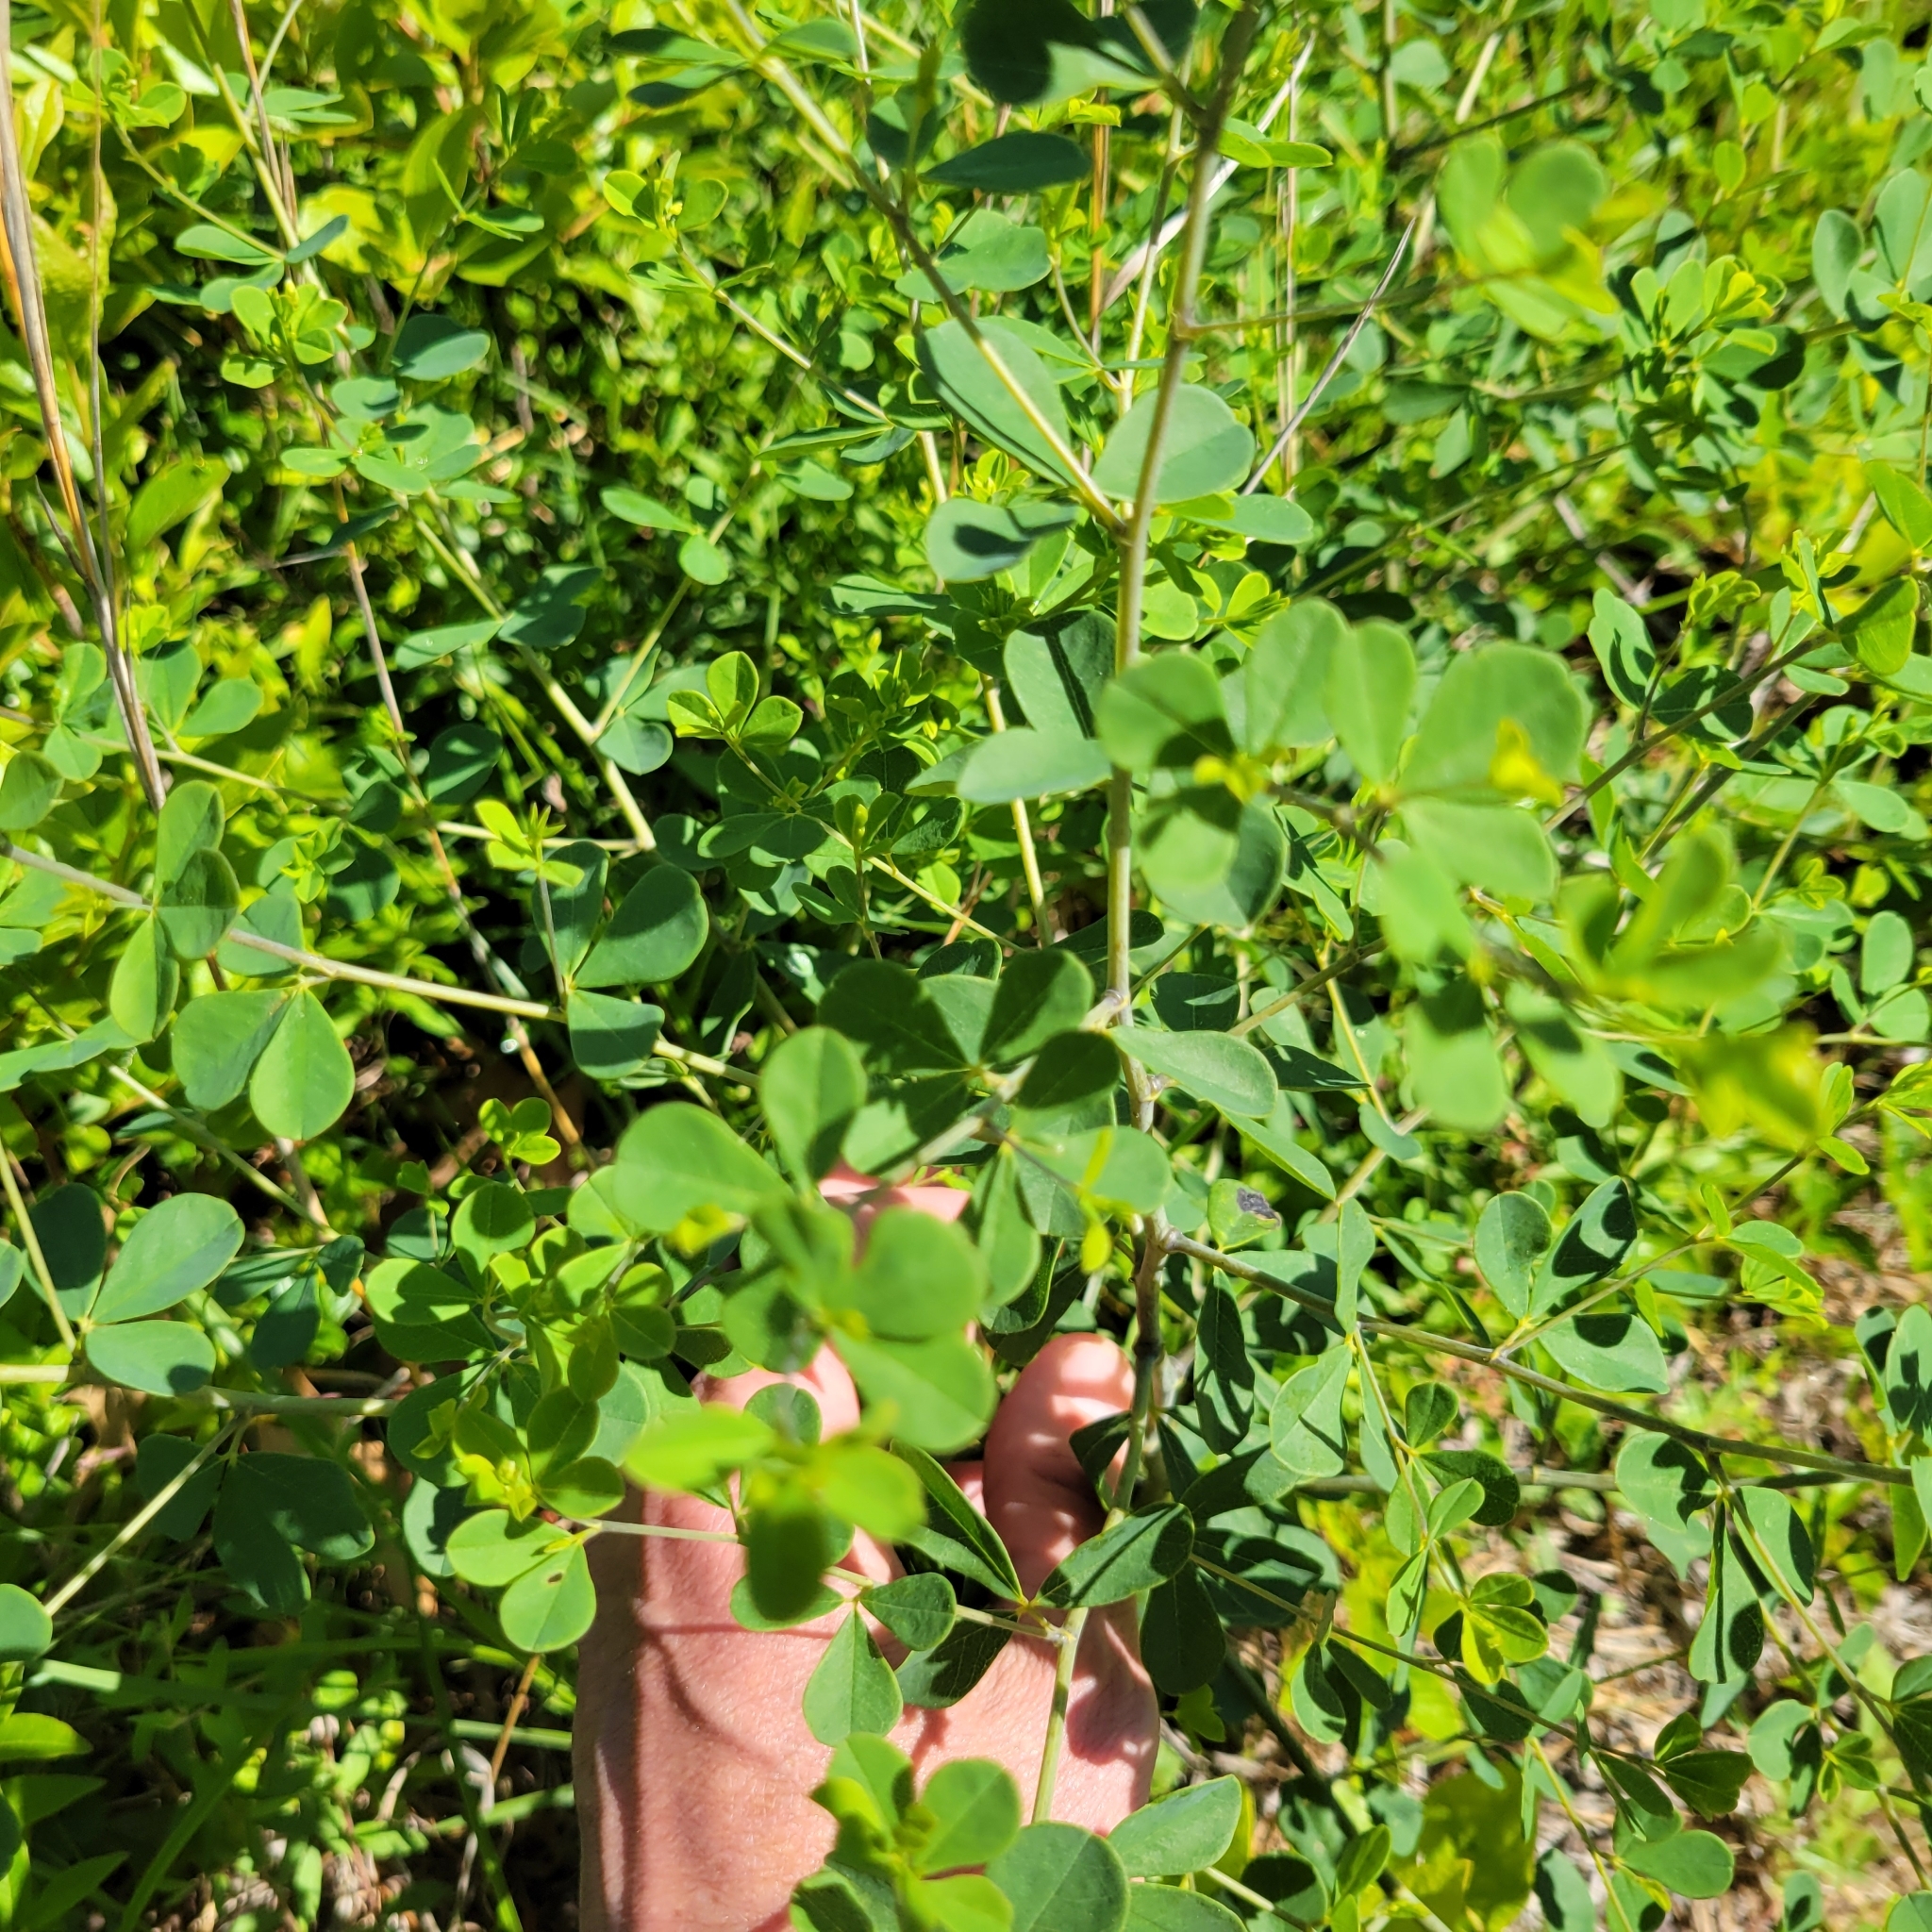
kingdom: Plantae
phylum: Tracheophyta
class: Magnoliopsida
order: Fabales
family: Fabaceae
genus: Baptisia
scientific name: Baptisia tinctoria
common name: Wild indigo
